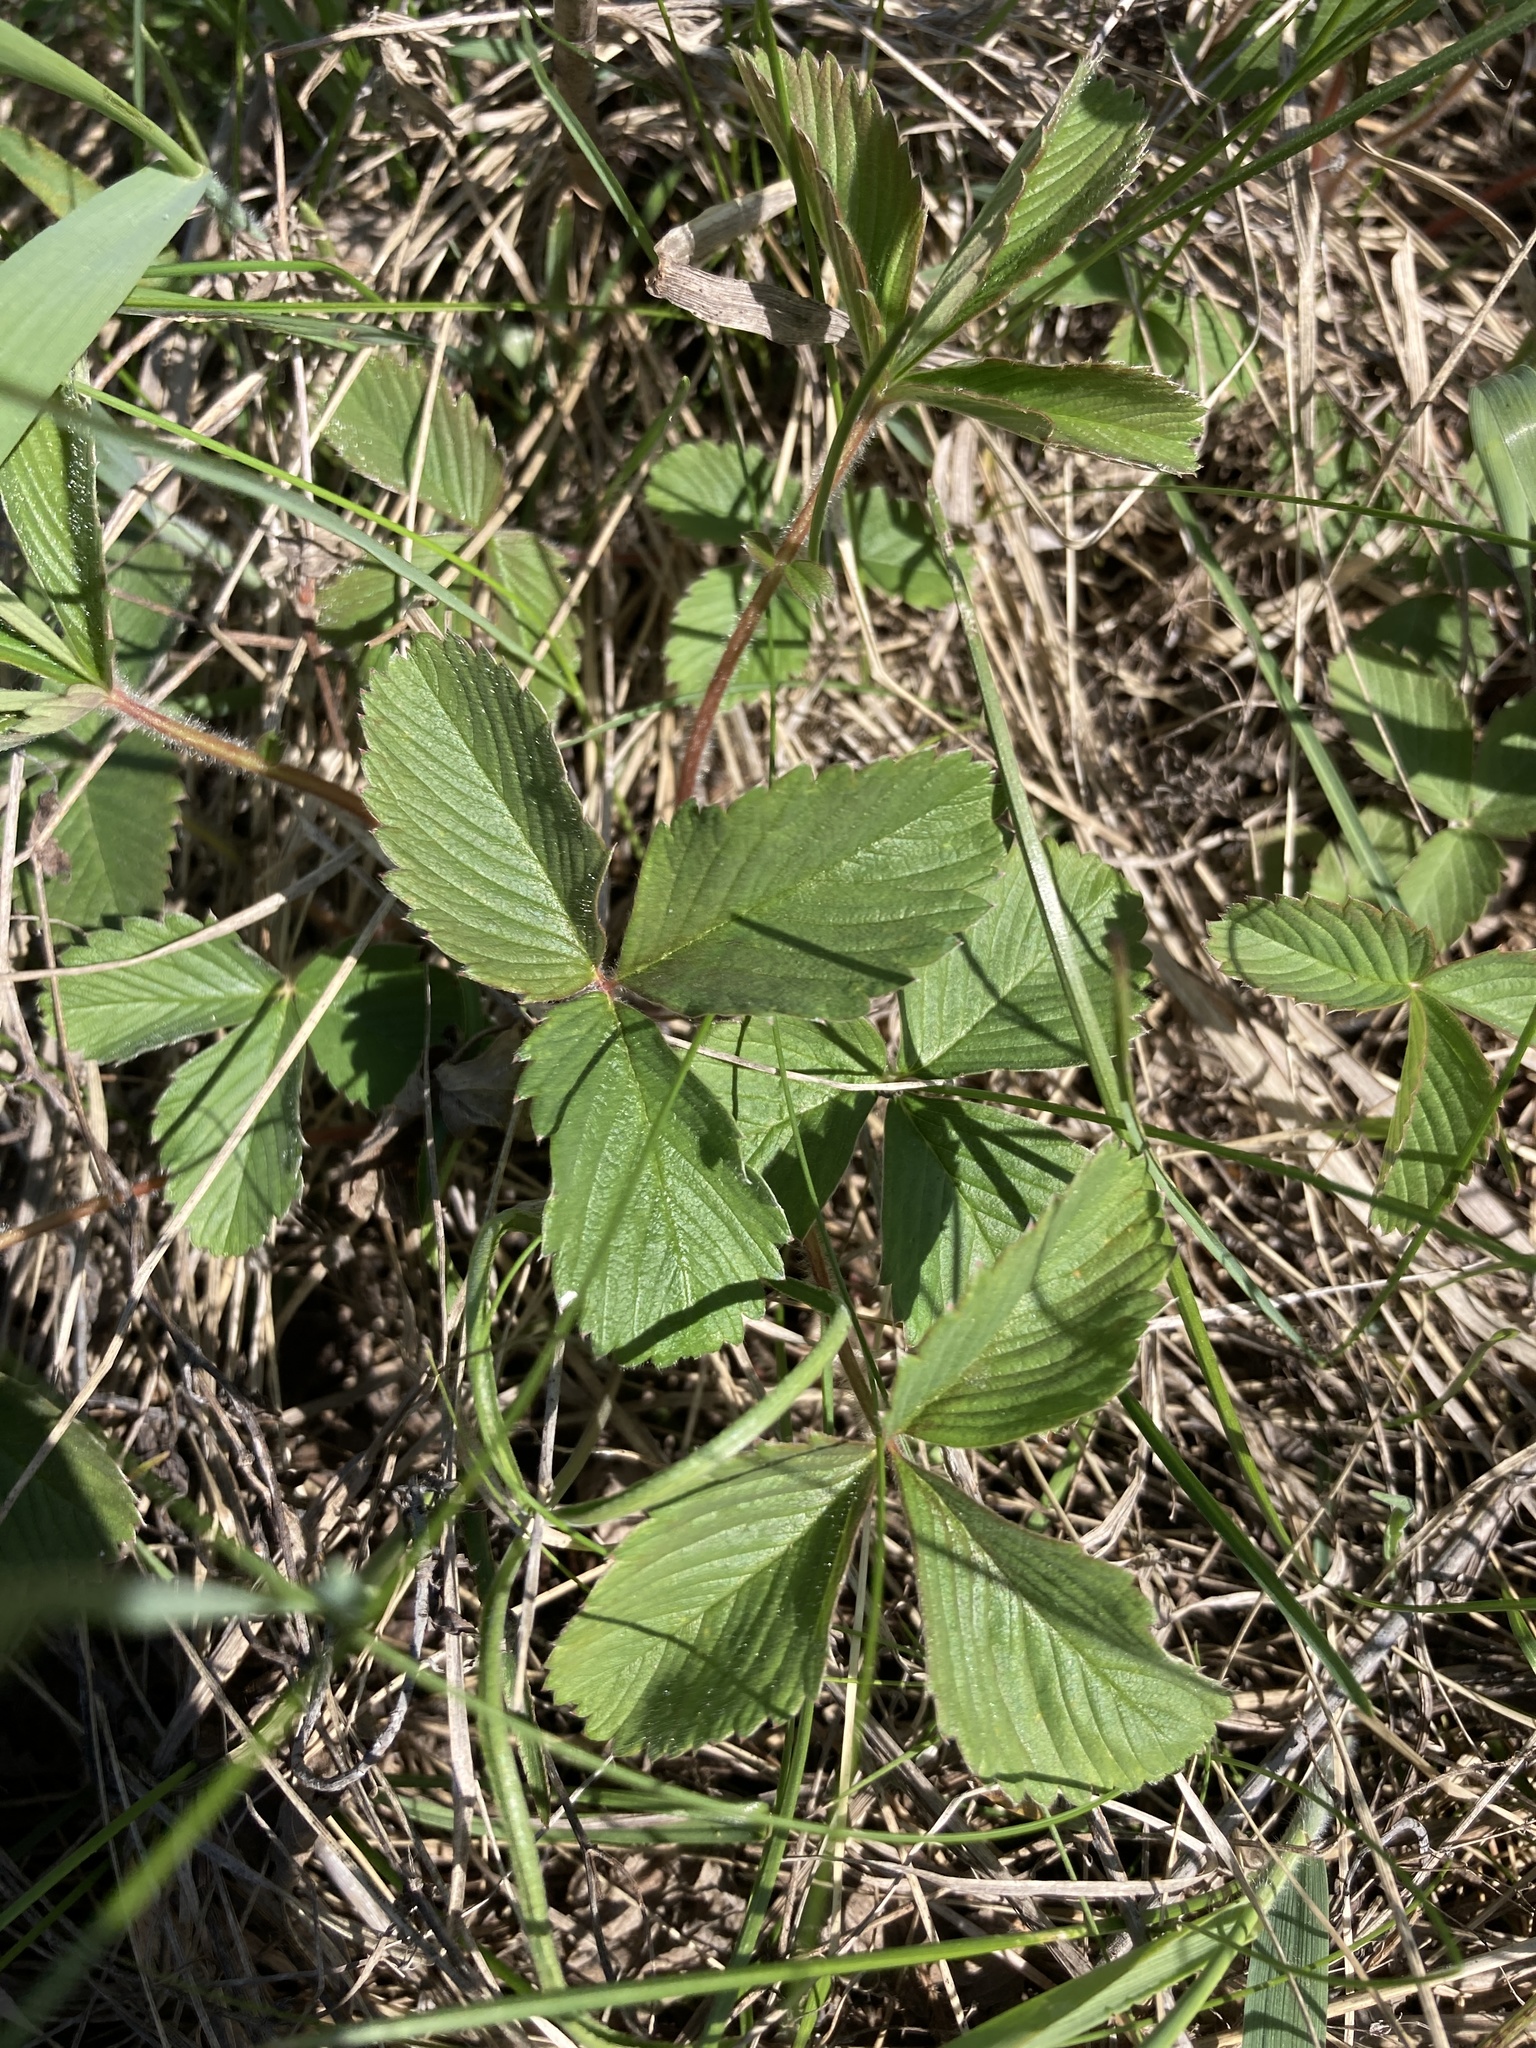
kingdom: Plantae
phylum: Tracheophyta
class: Magnoliopsida
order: Rosales
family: Rosaceae
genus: Fragaria
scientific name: Fragaria viridis
